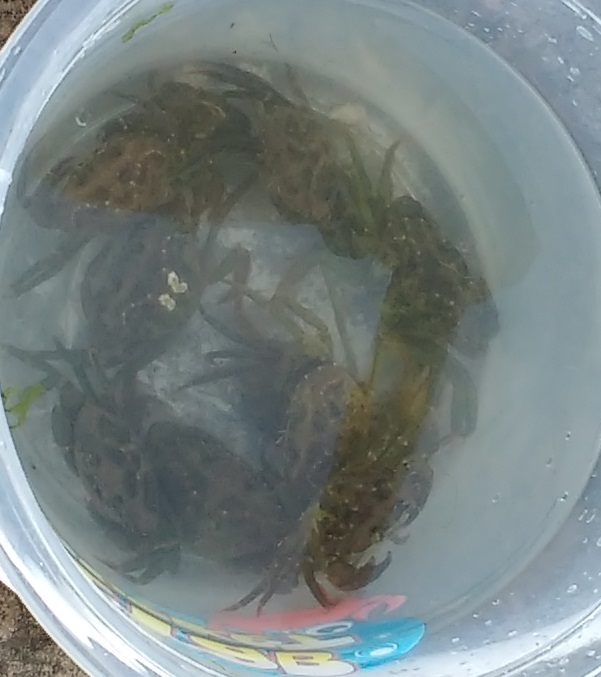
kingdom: Animalia
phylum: Arthropoda
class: Malacostraca
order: Decapoda
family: Carcinidae
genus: Carcinus
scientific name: Carcinus maenas
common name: European green crab
